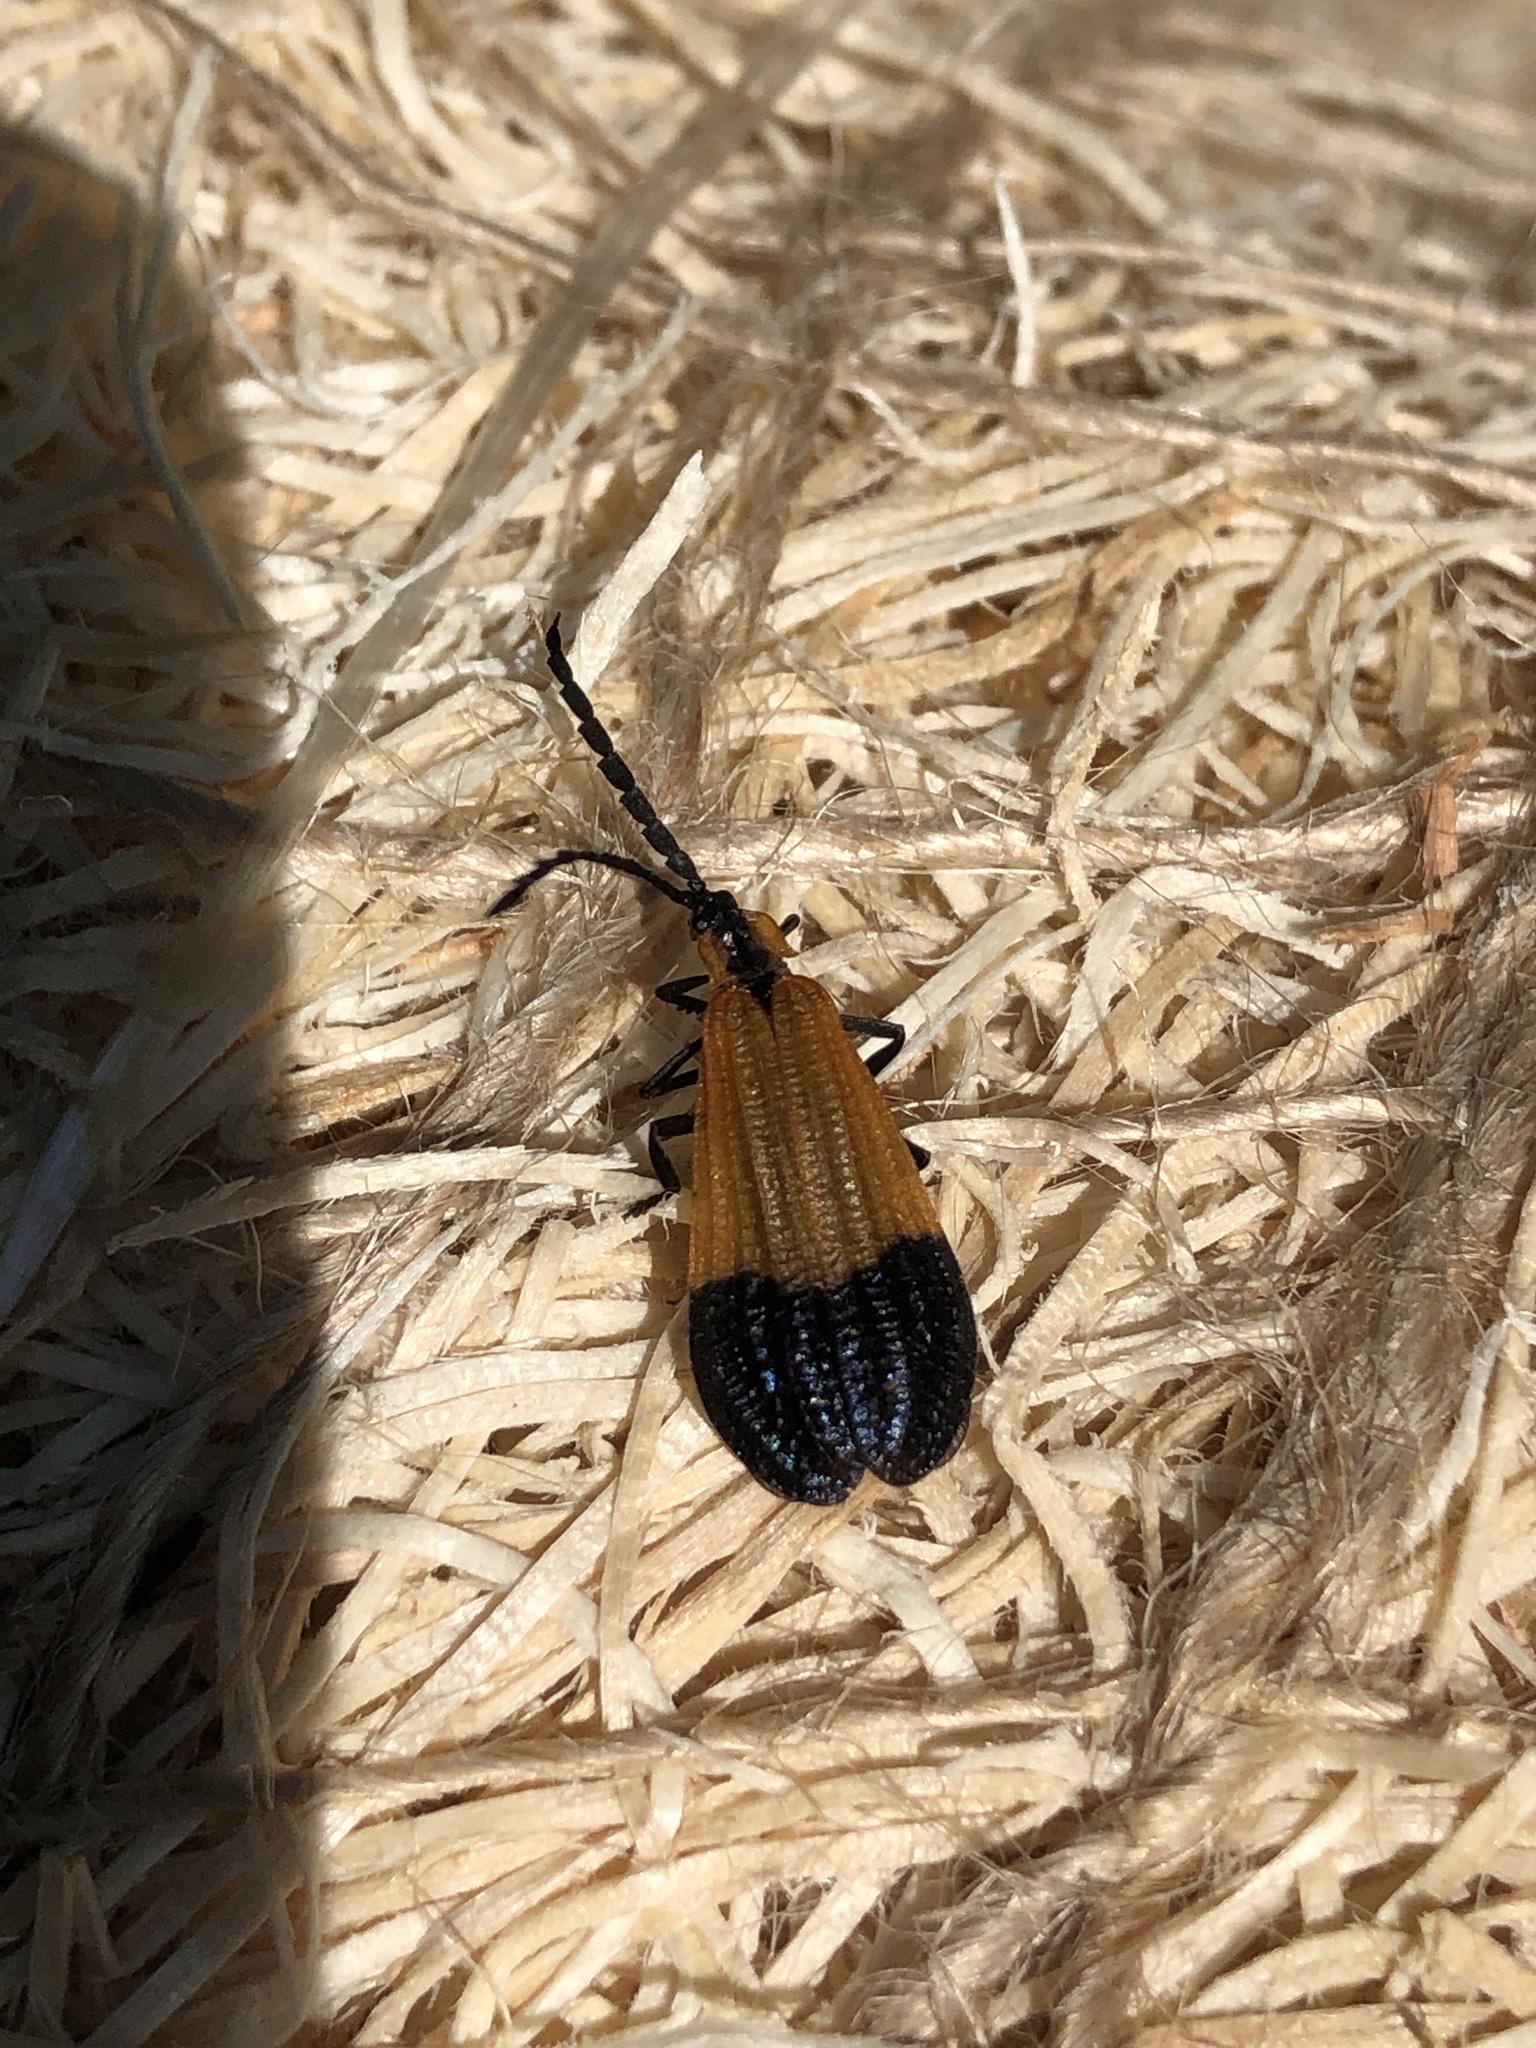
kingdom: Animalia
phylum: Arthropoda
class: Insecta
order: Coleoptera
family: Lycidae
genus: Calopteron
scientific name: Calopteron terminale
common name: End band net-winged beetle
